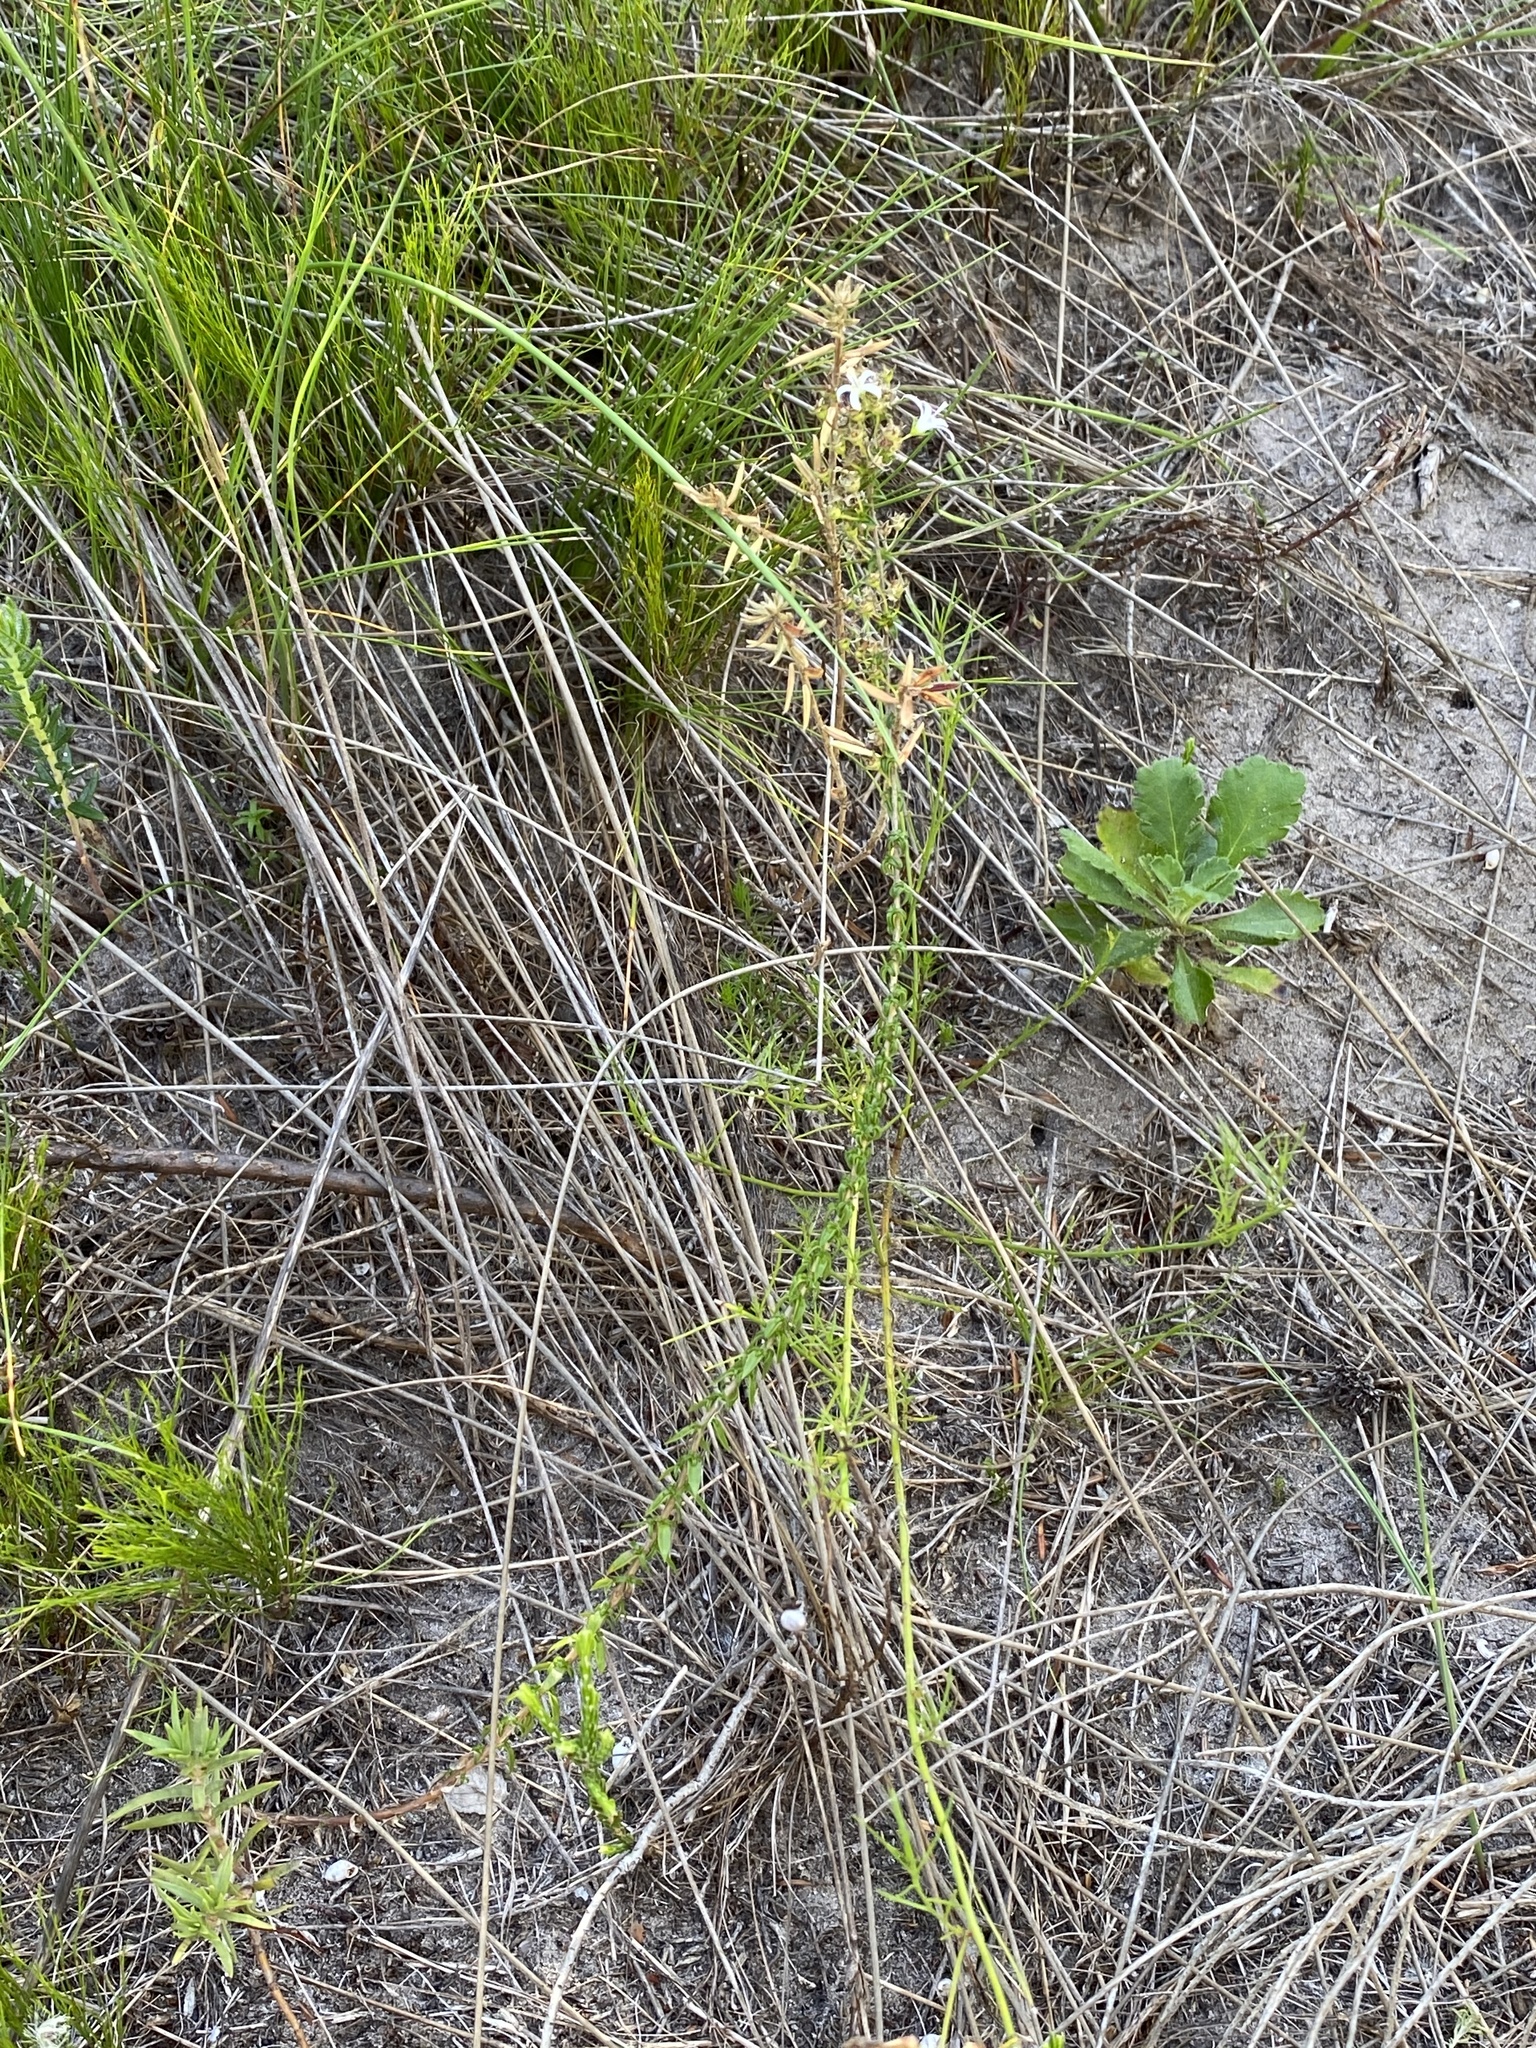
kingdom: Plantae
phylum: Tracheophyta
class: Magnoliopsida
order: Asterales
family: Campanulaceae
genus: Wahlenbergia
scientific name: Wahlenbergia tenella
